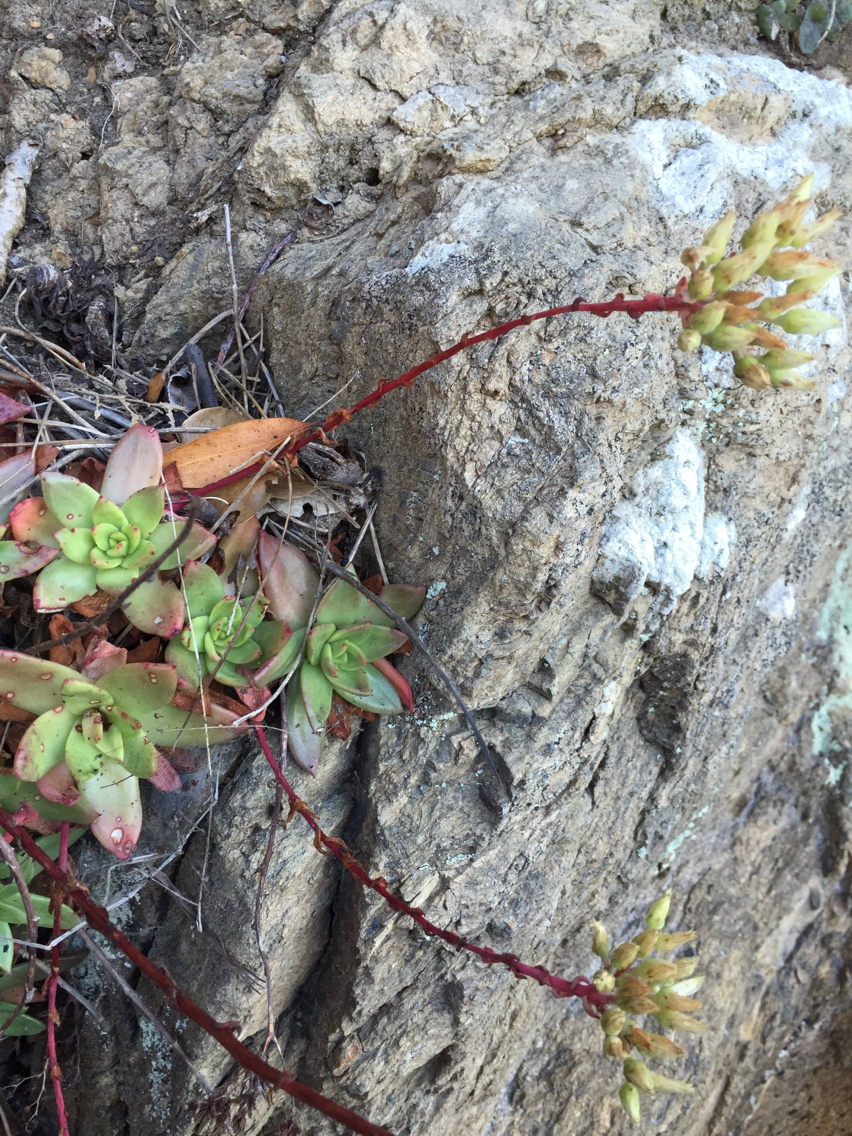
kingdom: Plantae
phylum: Tracheophyta
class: Magnoliopsida
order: Saxifragales
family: Crassulaceae
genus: Dudleya
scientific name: Dudleya farinosa
